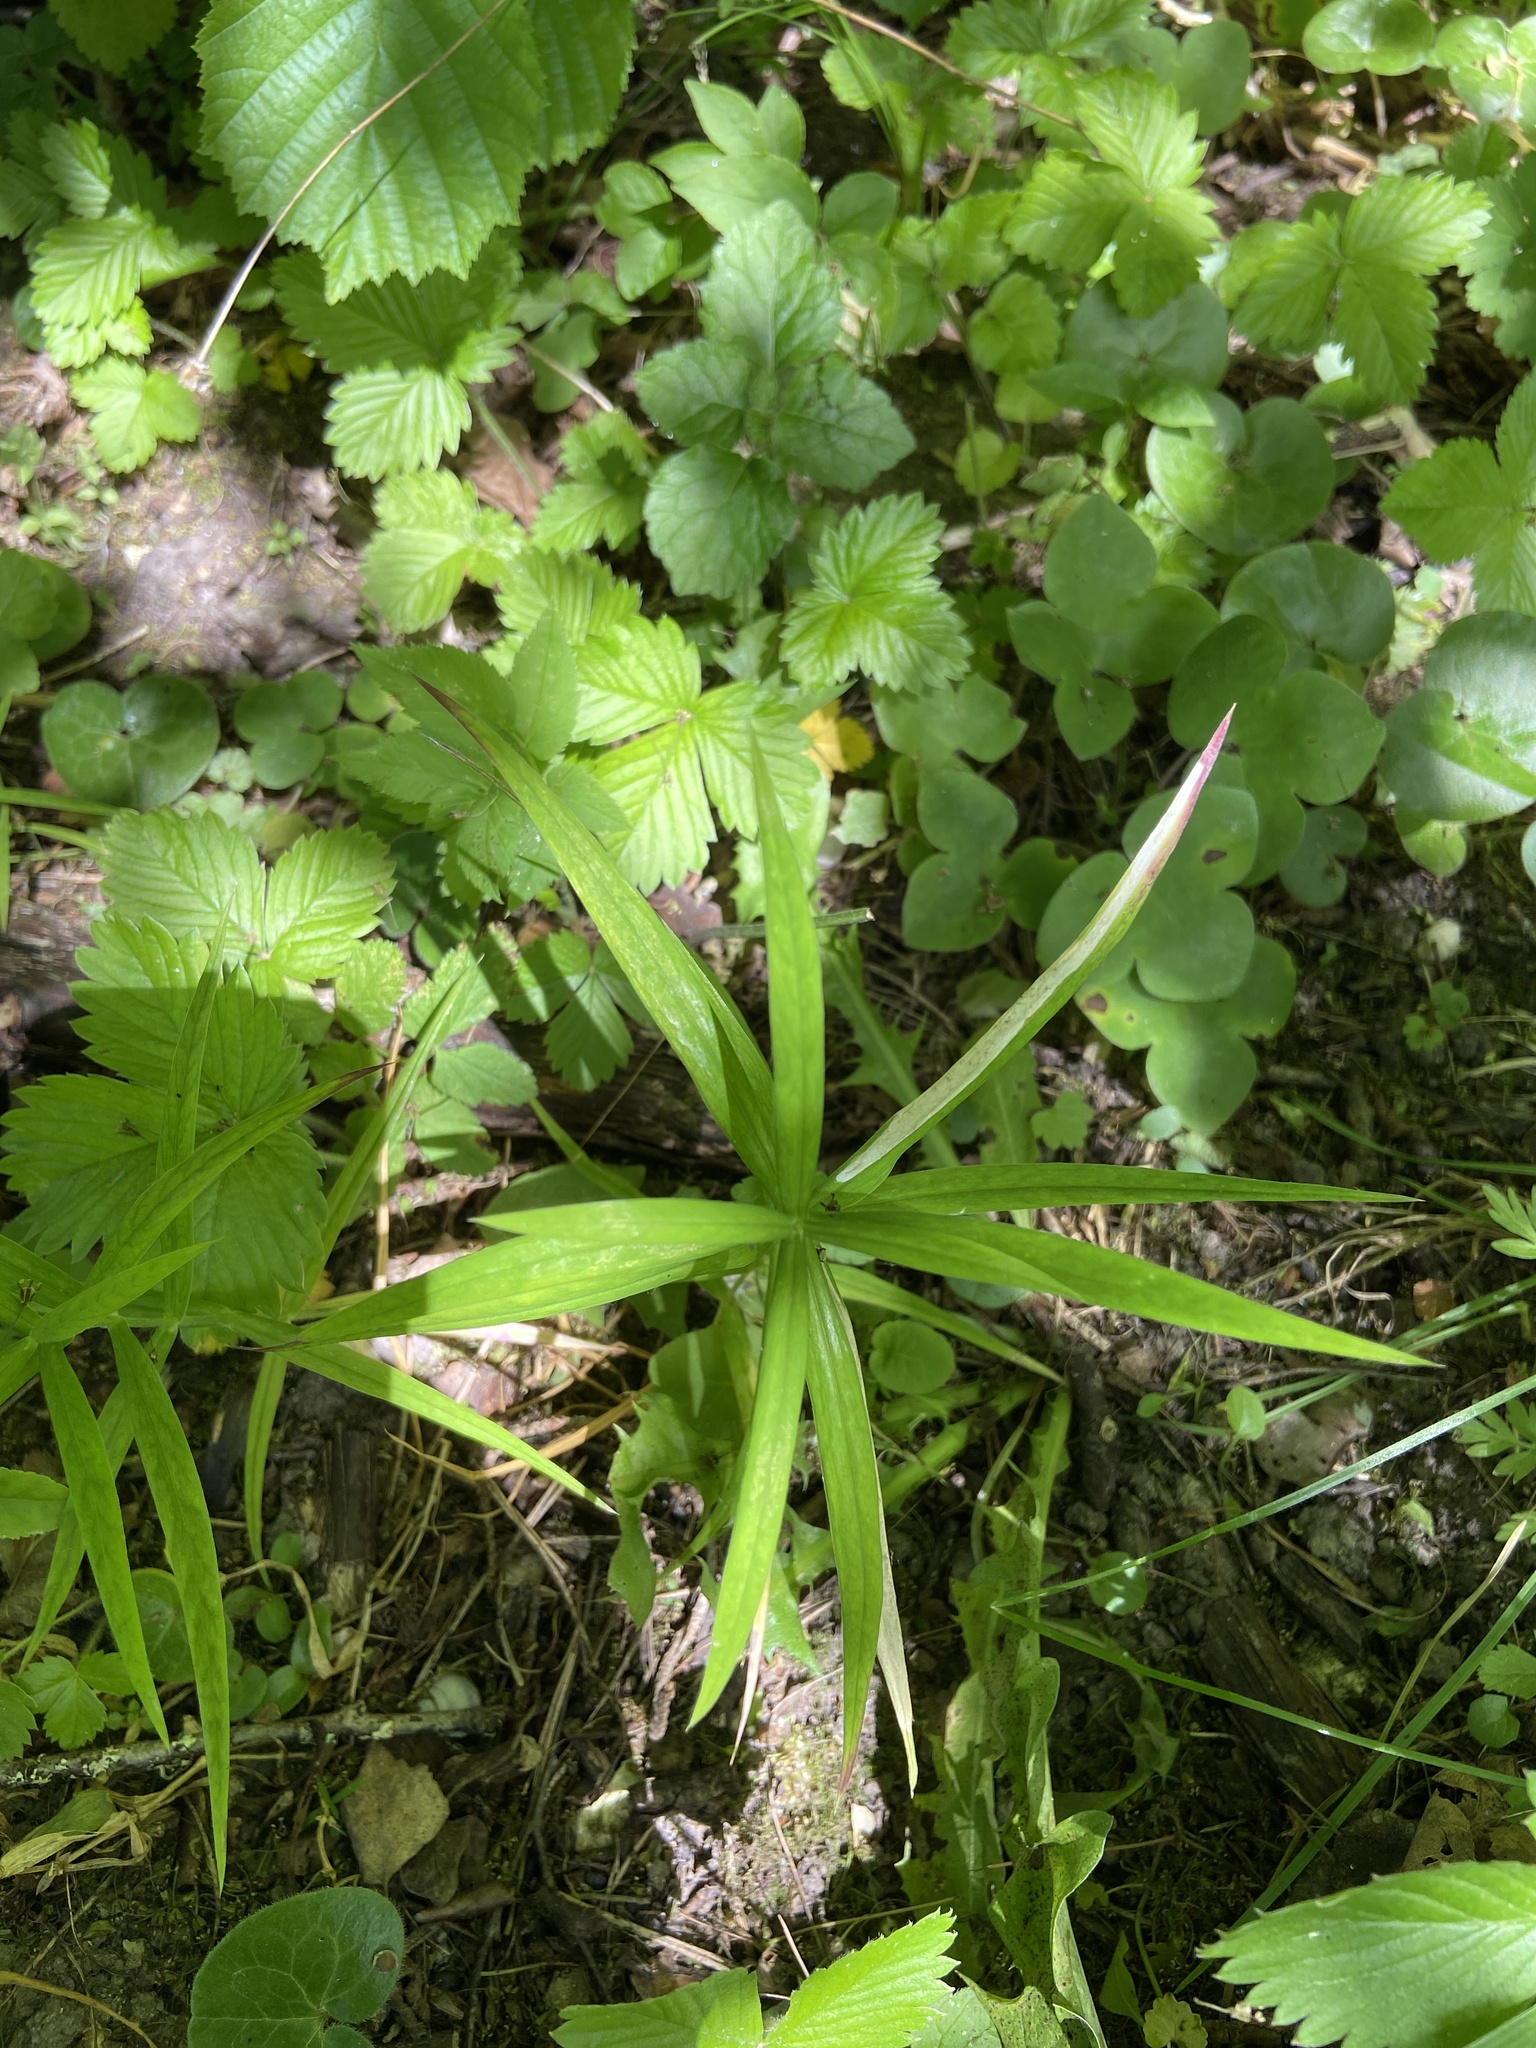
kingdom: Plantae
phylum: Tracheophyta
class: Magnoliopsida
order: Caryophyllales
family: Caryophyllaceae
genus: Rabelera
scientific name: Rabelera holostea
